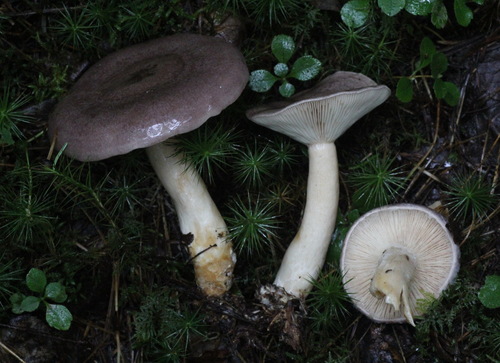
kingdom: Fungi
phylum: Basidiomycota
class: Agaricomycetes
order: Russulales
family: Russulaceae
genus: Lactarius
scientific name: Lactarius trivialis
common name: Tacked milkcap
